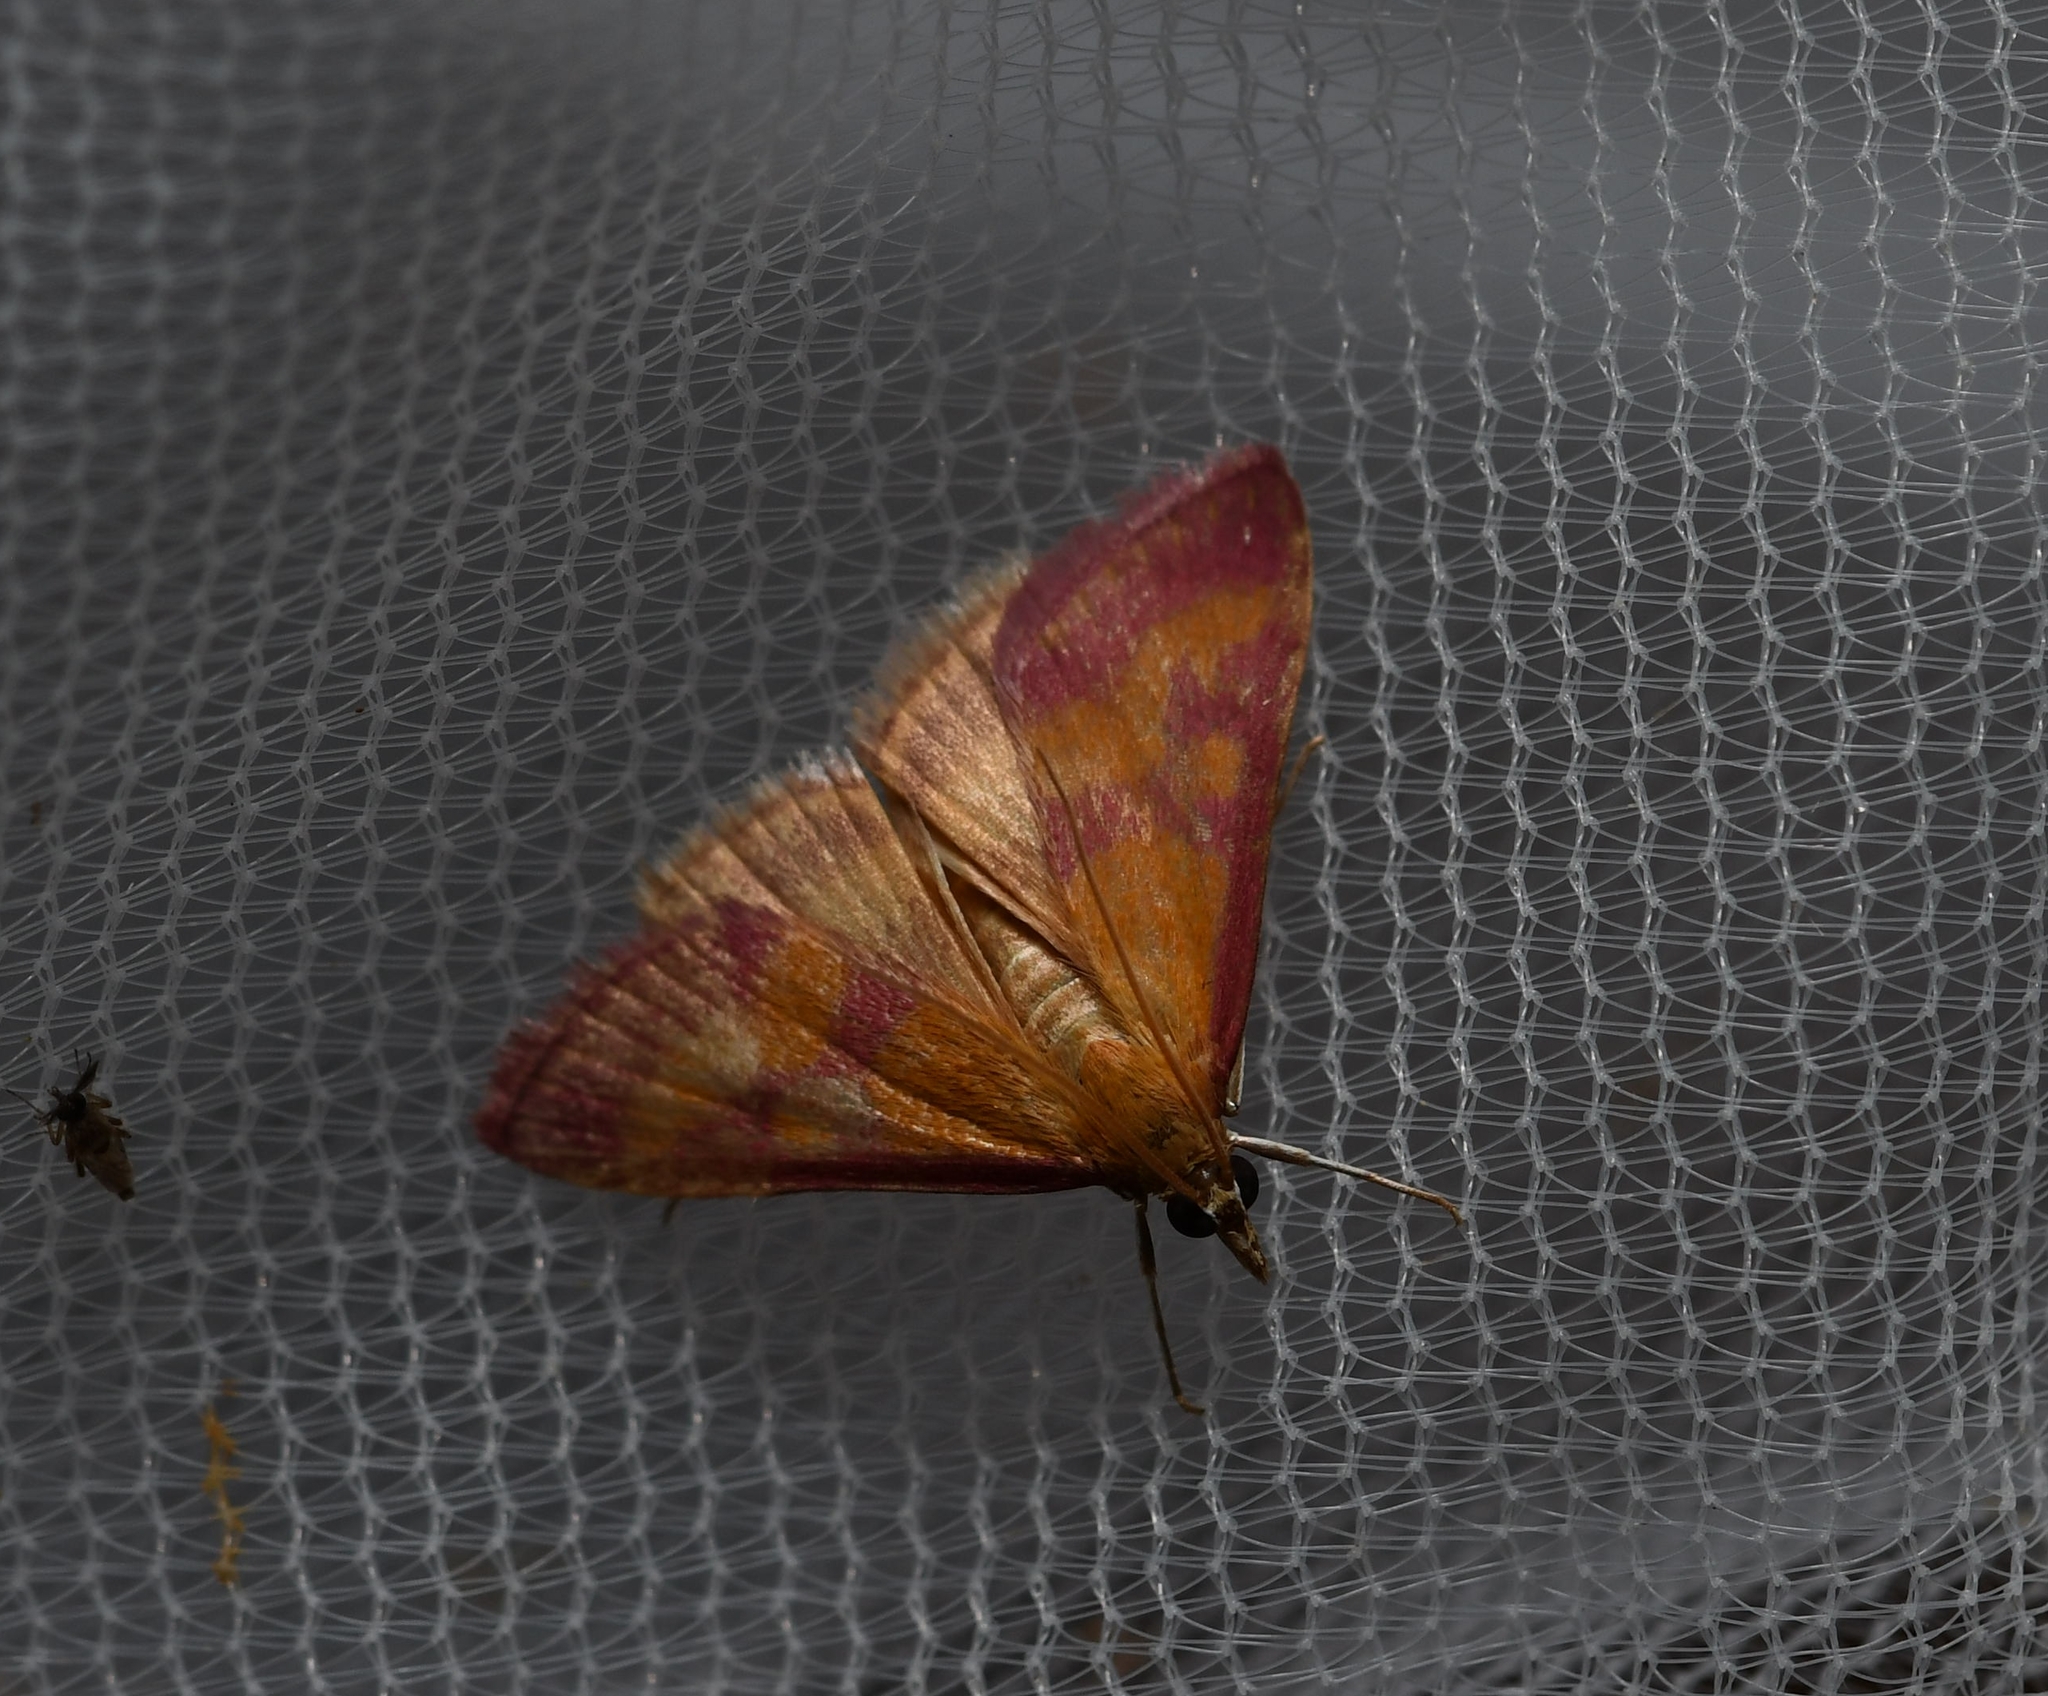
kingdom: Animalia
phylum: Arthropoda
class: Insecta
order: Lepidoptera
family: Crambidae
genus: Pyrausta
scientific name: Pyrausta laticlavia
